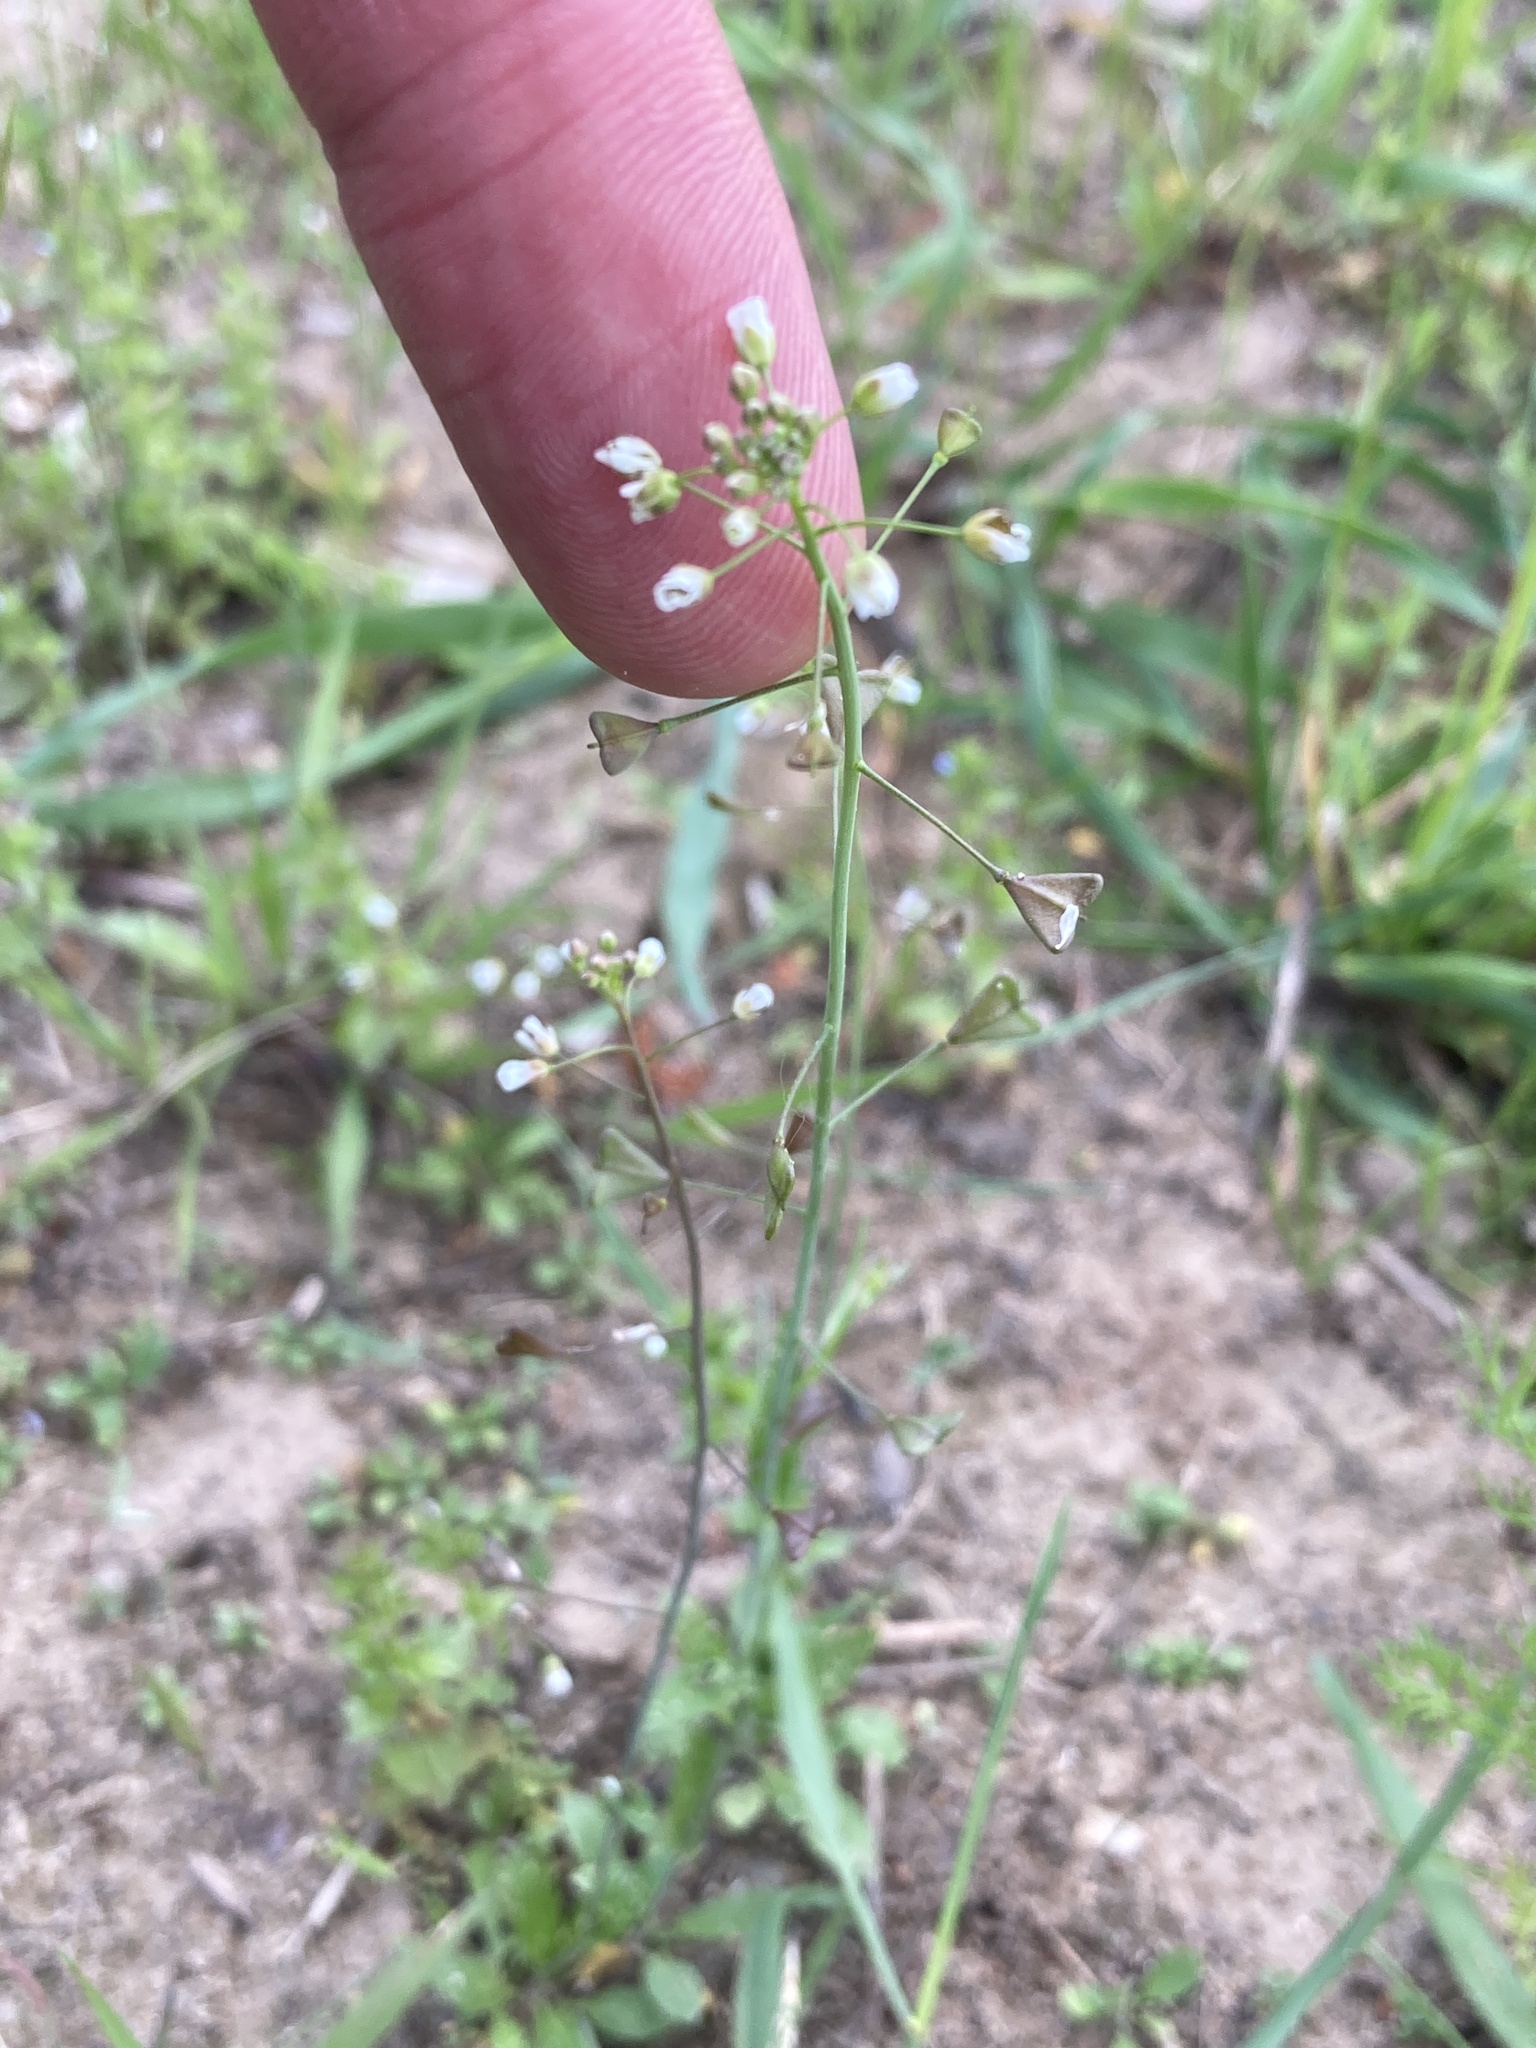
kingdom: Plantae
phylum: Tracheophyta
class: Magnoliopsida
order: Brassicales
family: Brassicaceae
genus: Capsella
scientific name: Capsella bursa-pastoris
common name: Shepherd's purse
